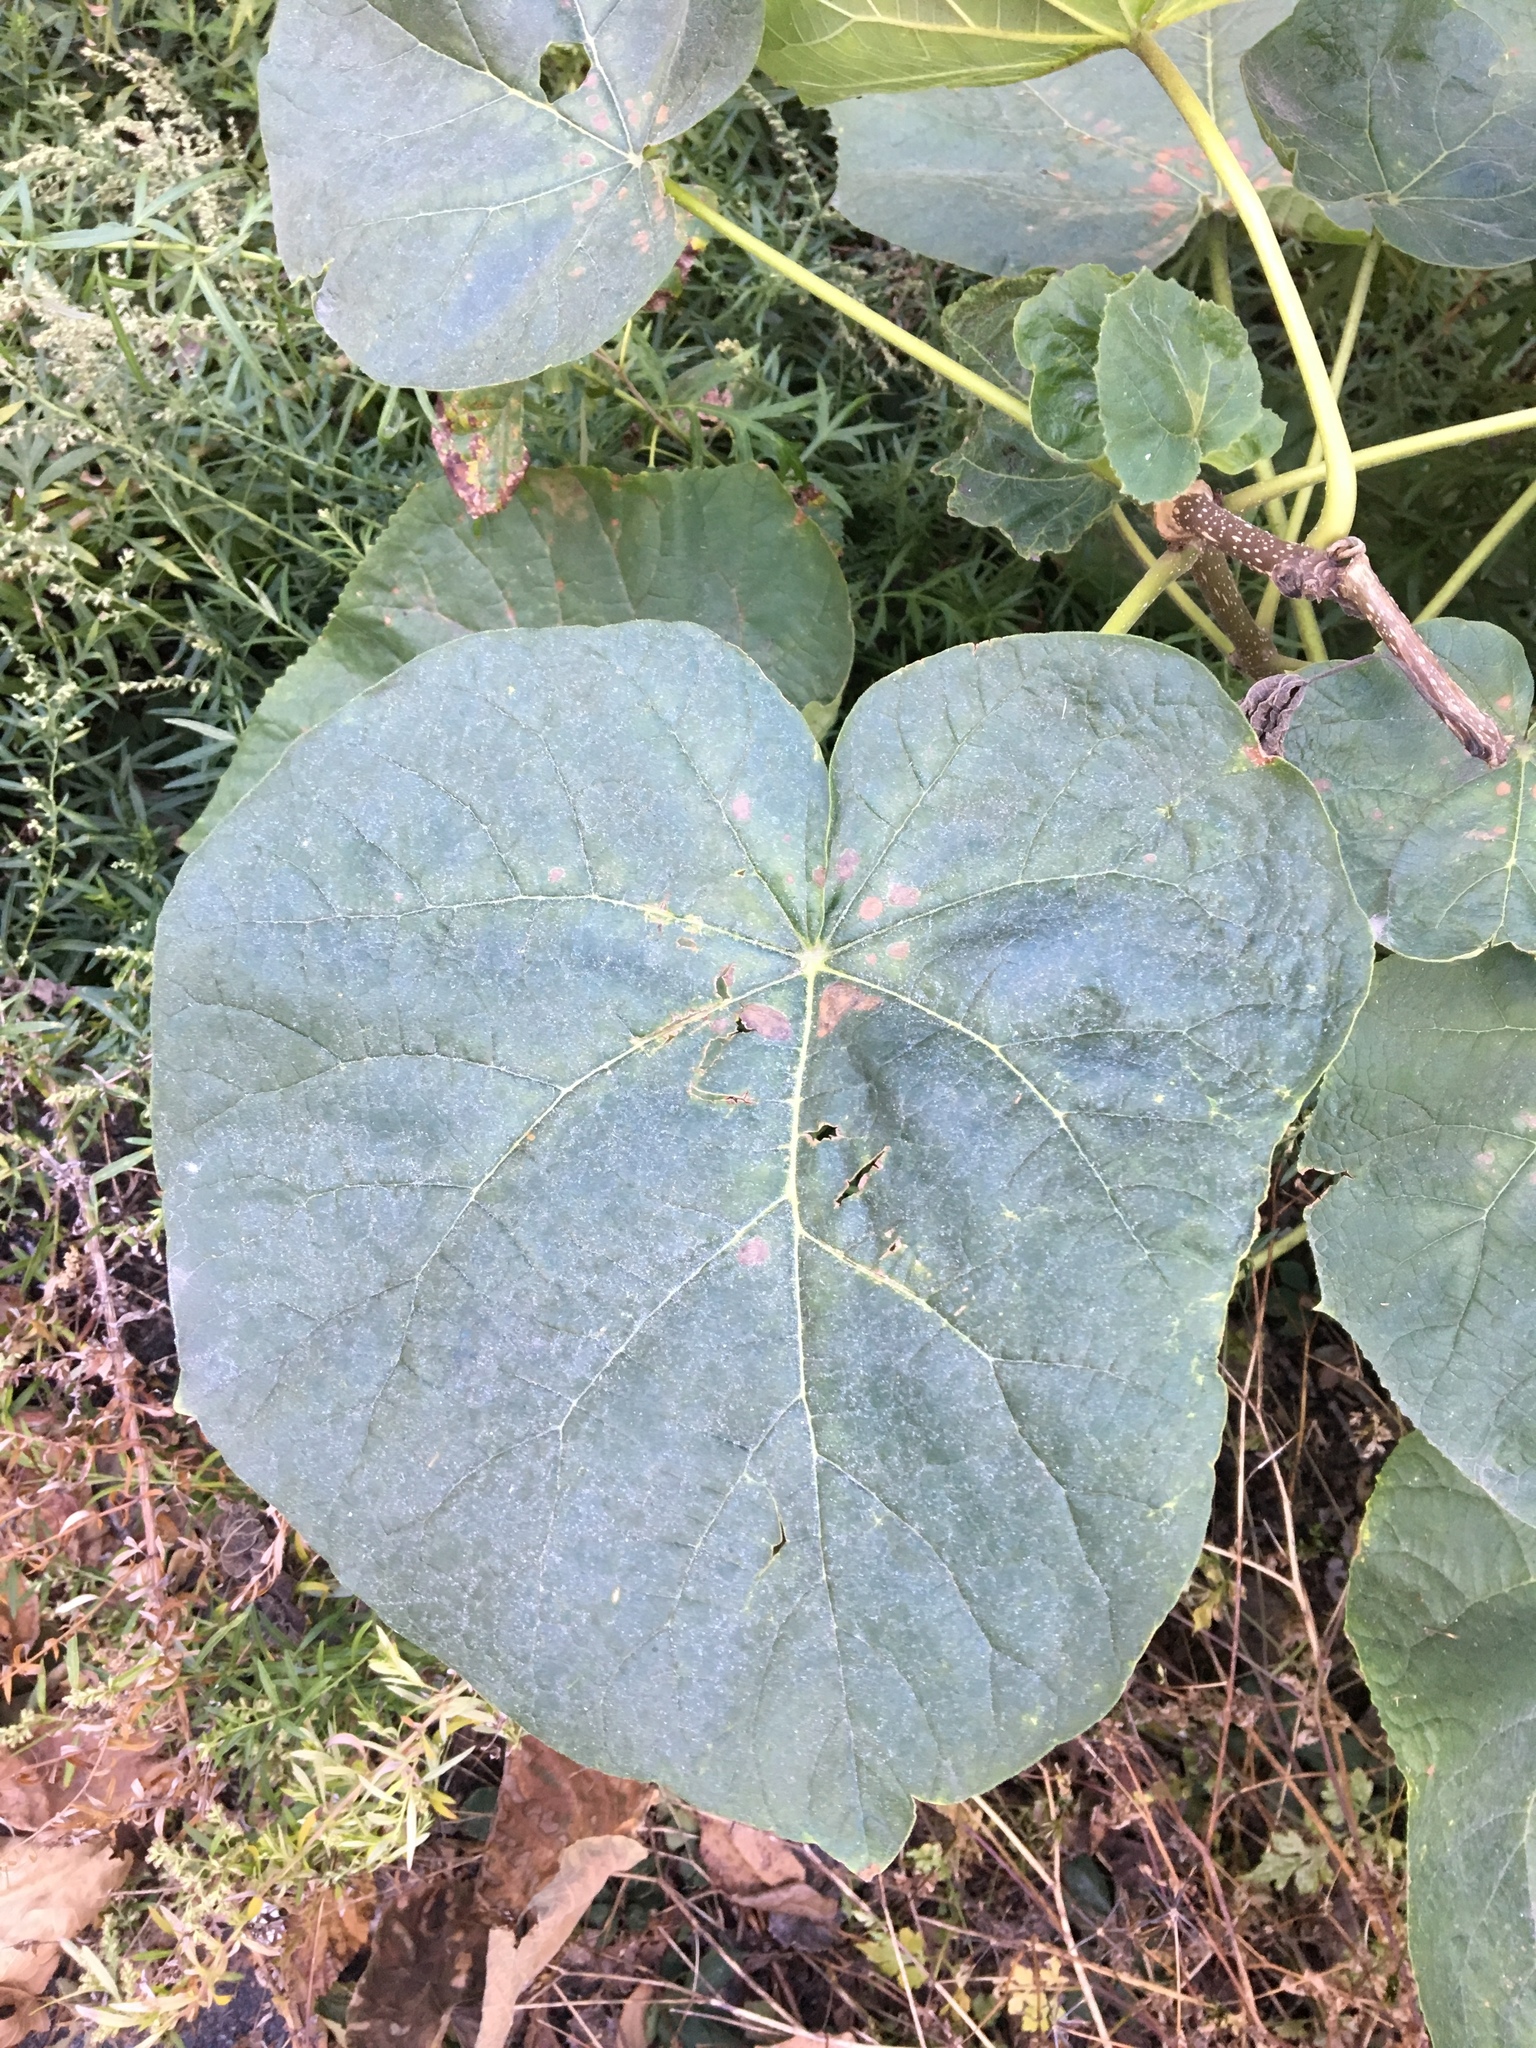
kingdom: Plantae
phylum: Tracheophyta
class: Magnoliopsida
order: Lamiales
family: Paulowniaceae
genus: Paulownia
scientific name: Paulownia tomentosa
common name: Foxglove-tree
